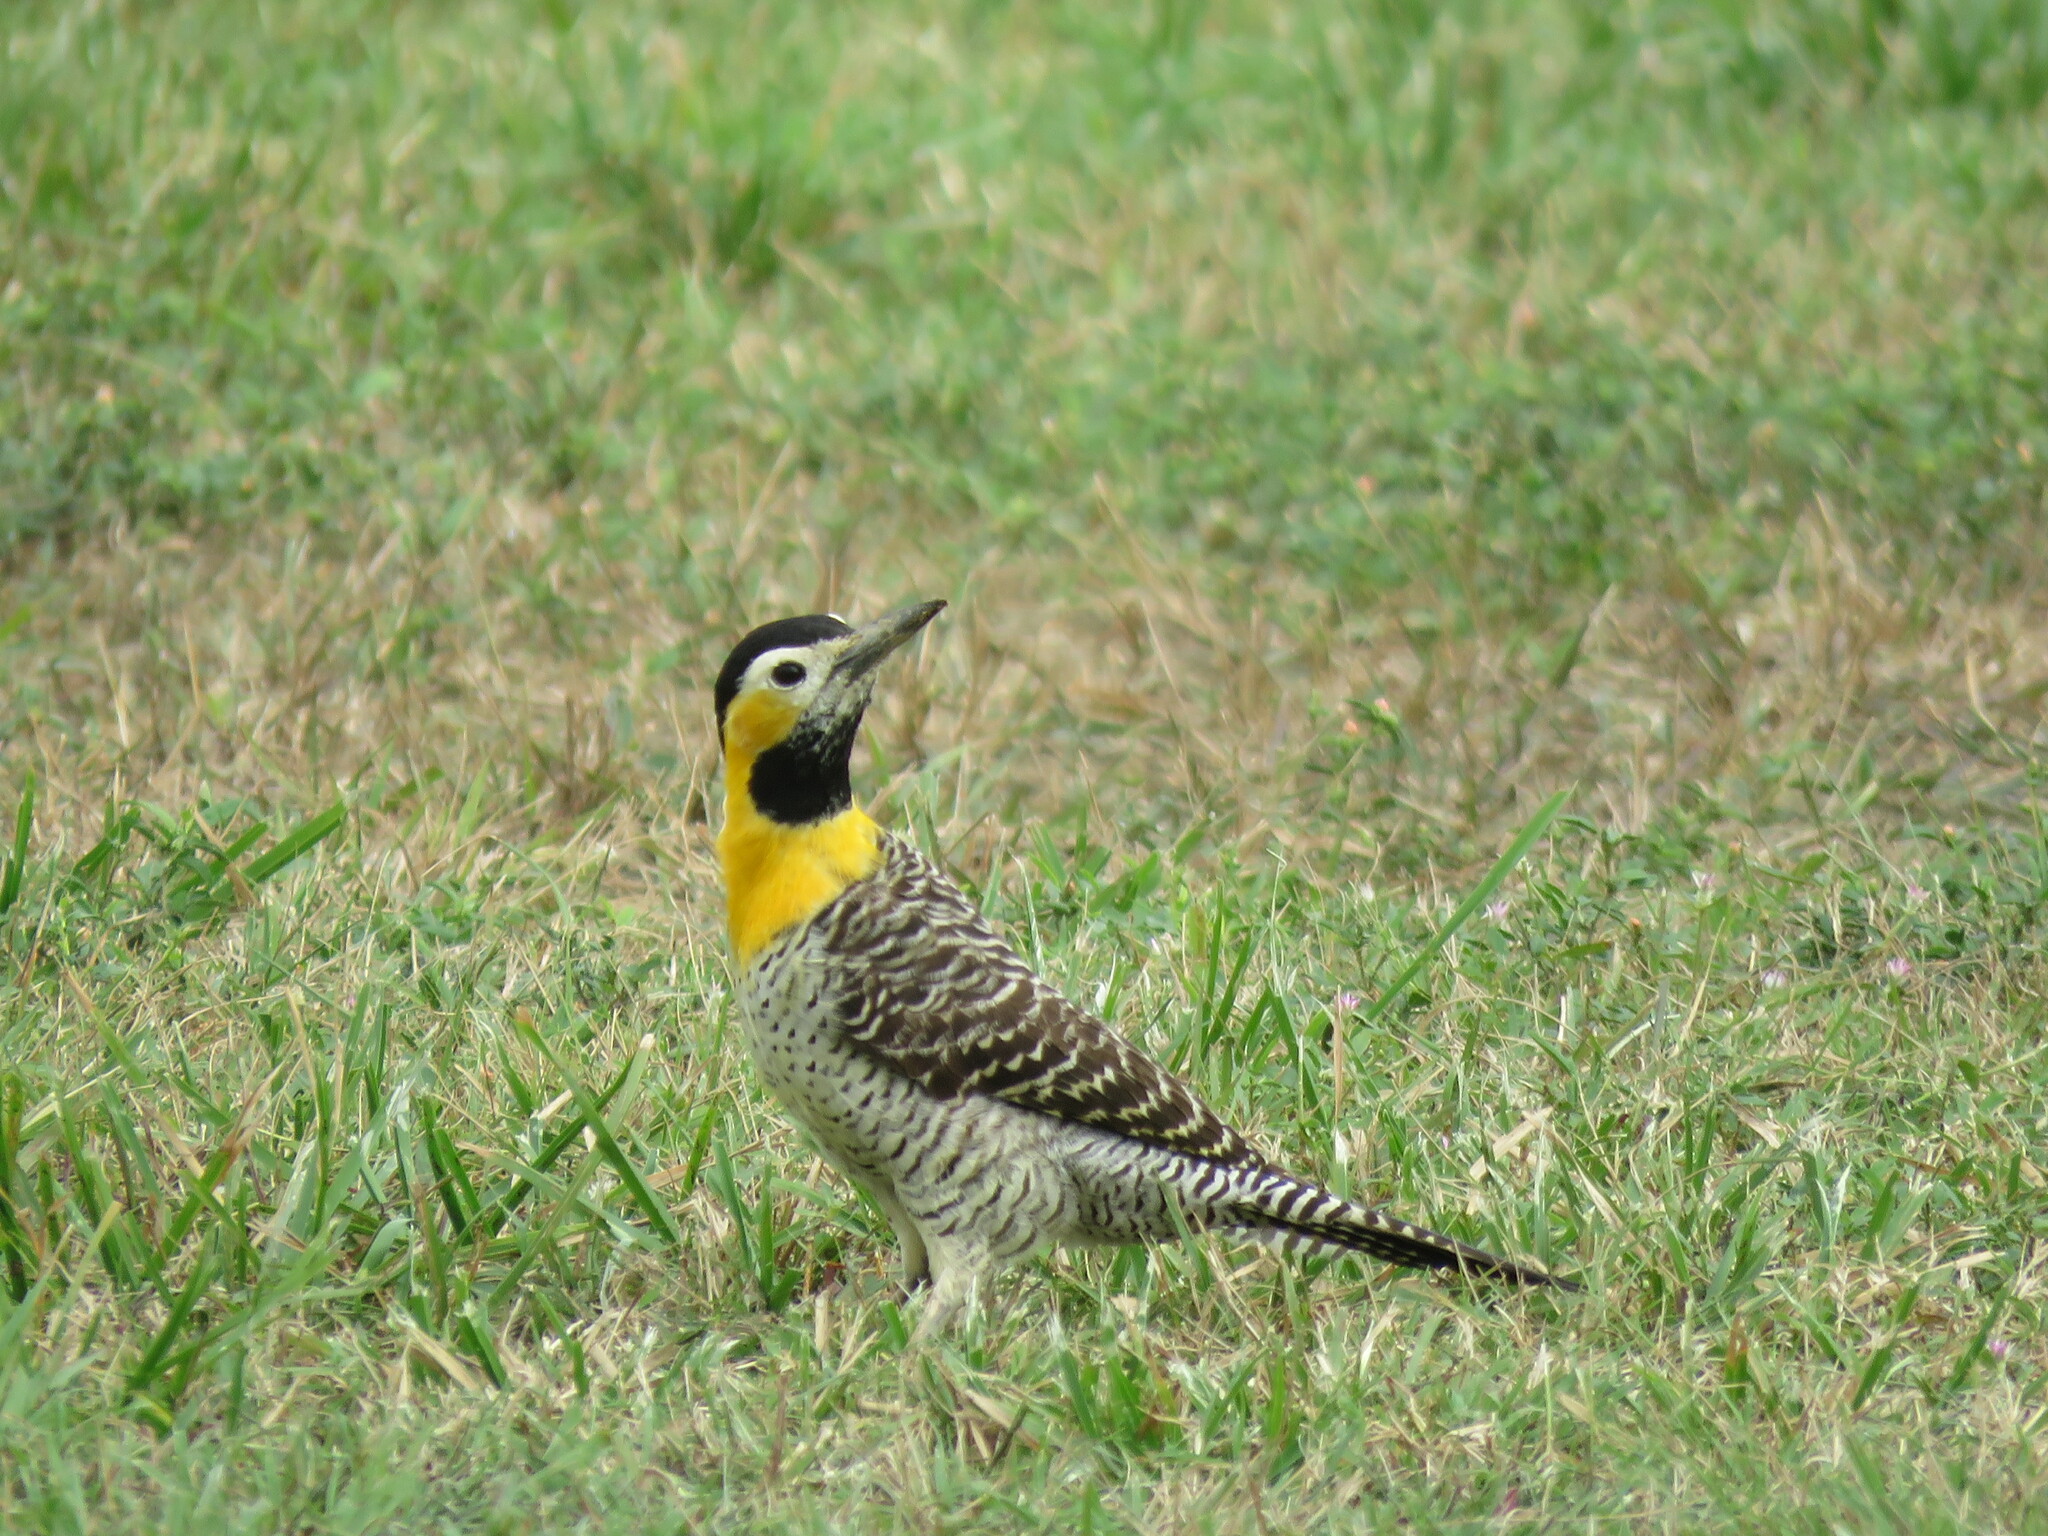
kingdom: Animalia
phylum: Chordata
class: Aves
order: Piciformes
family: Picidae
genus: Colaptes
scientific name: Colaptes campestris
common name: Campo flicker
